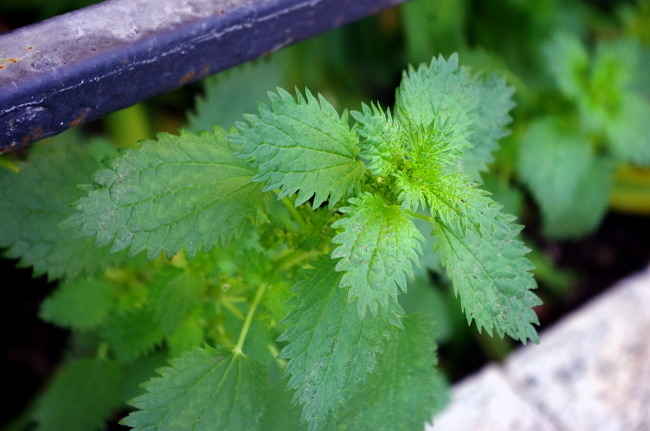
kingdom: Plantae
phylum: Tracheophyta
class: Magnoliopsida
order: Rosales
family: Urticaceae
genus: Urtica
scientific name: Urtica urens
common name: Dwarf nettle
